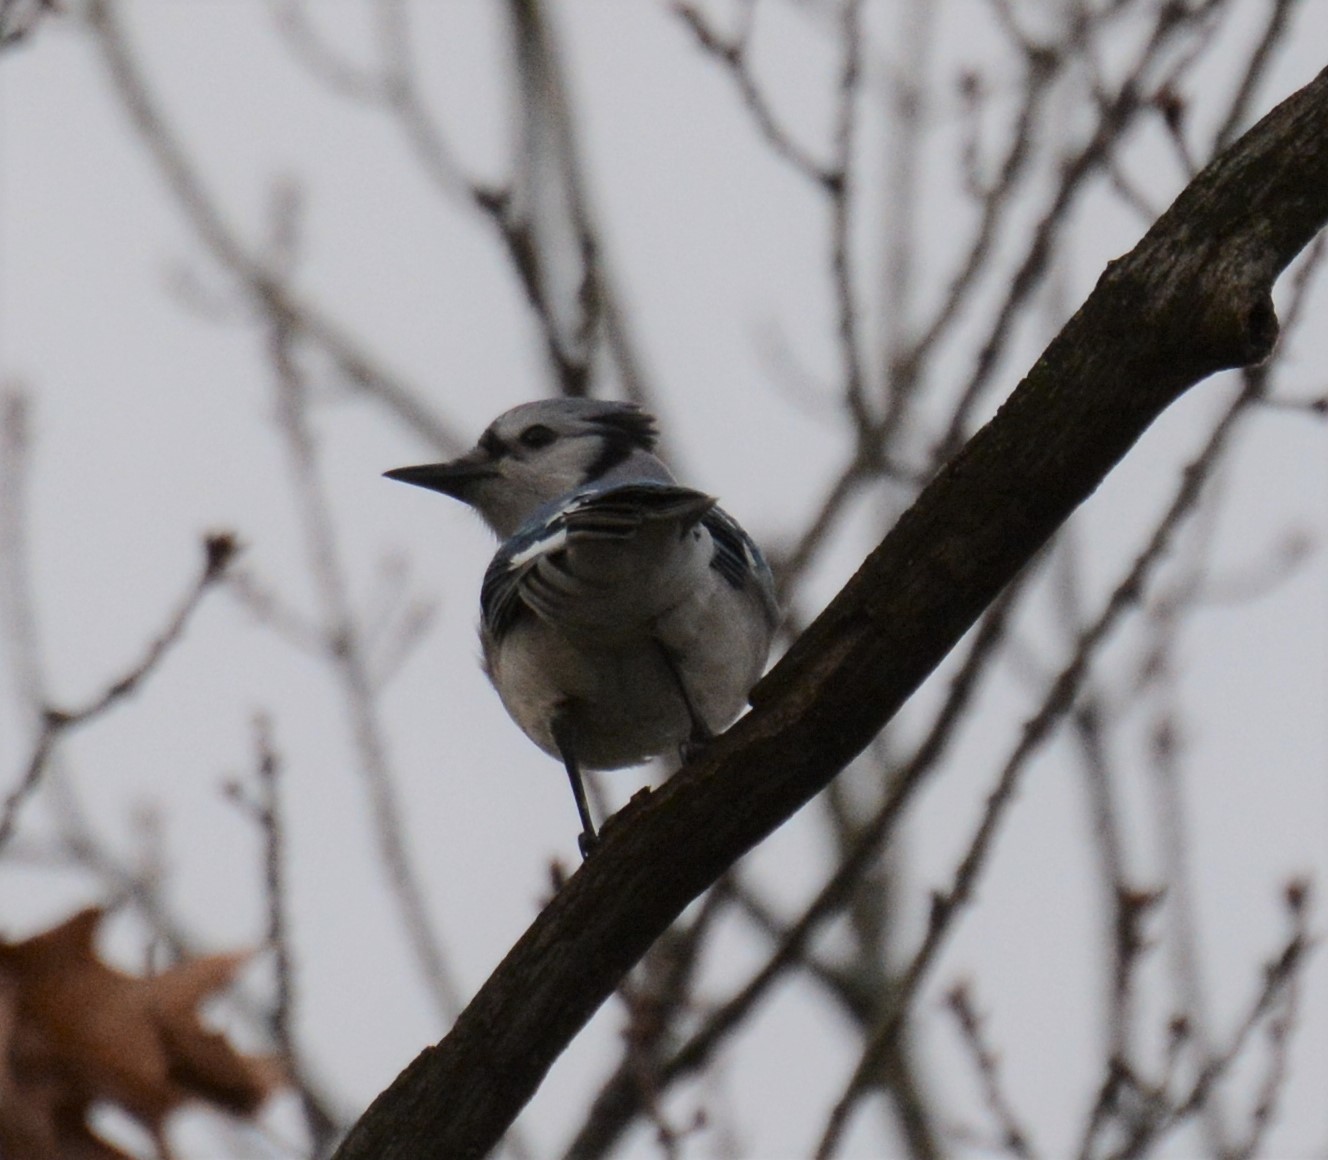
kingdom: Animalia
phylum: Chordata
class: Aves
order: Passeriformes
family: Corvidae
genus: Cyanocitta
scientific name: Cyanocitta cristata
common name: Blue jay
